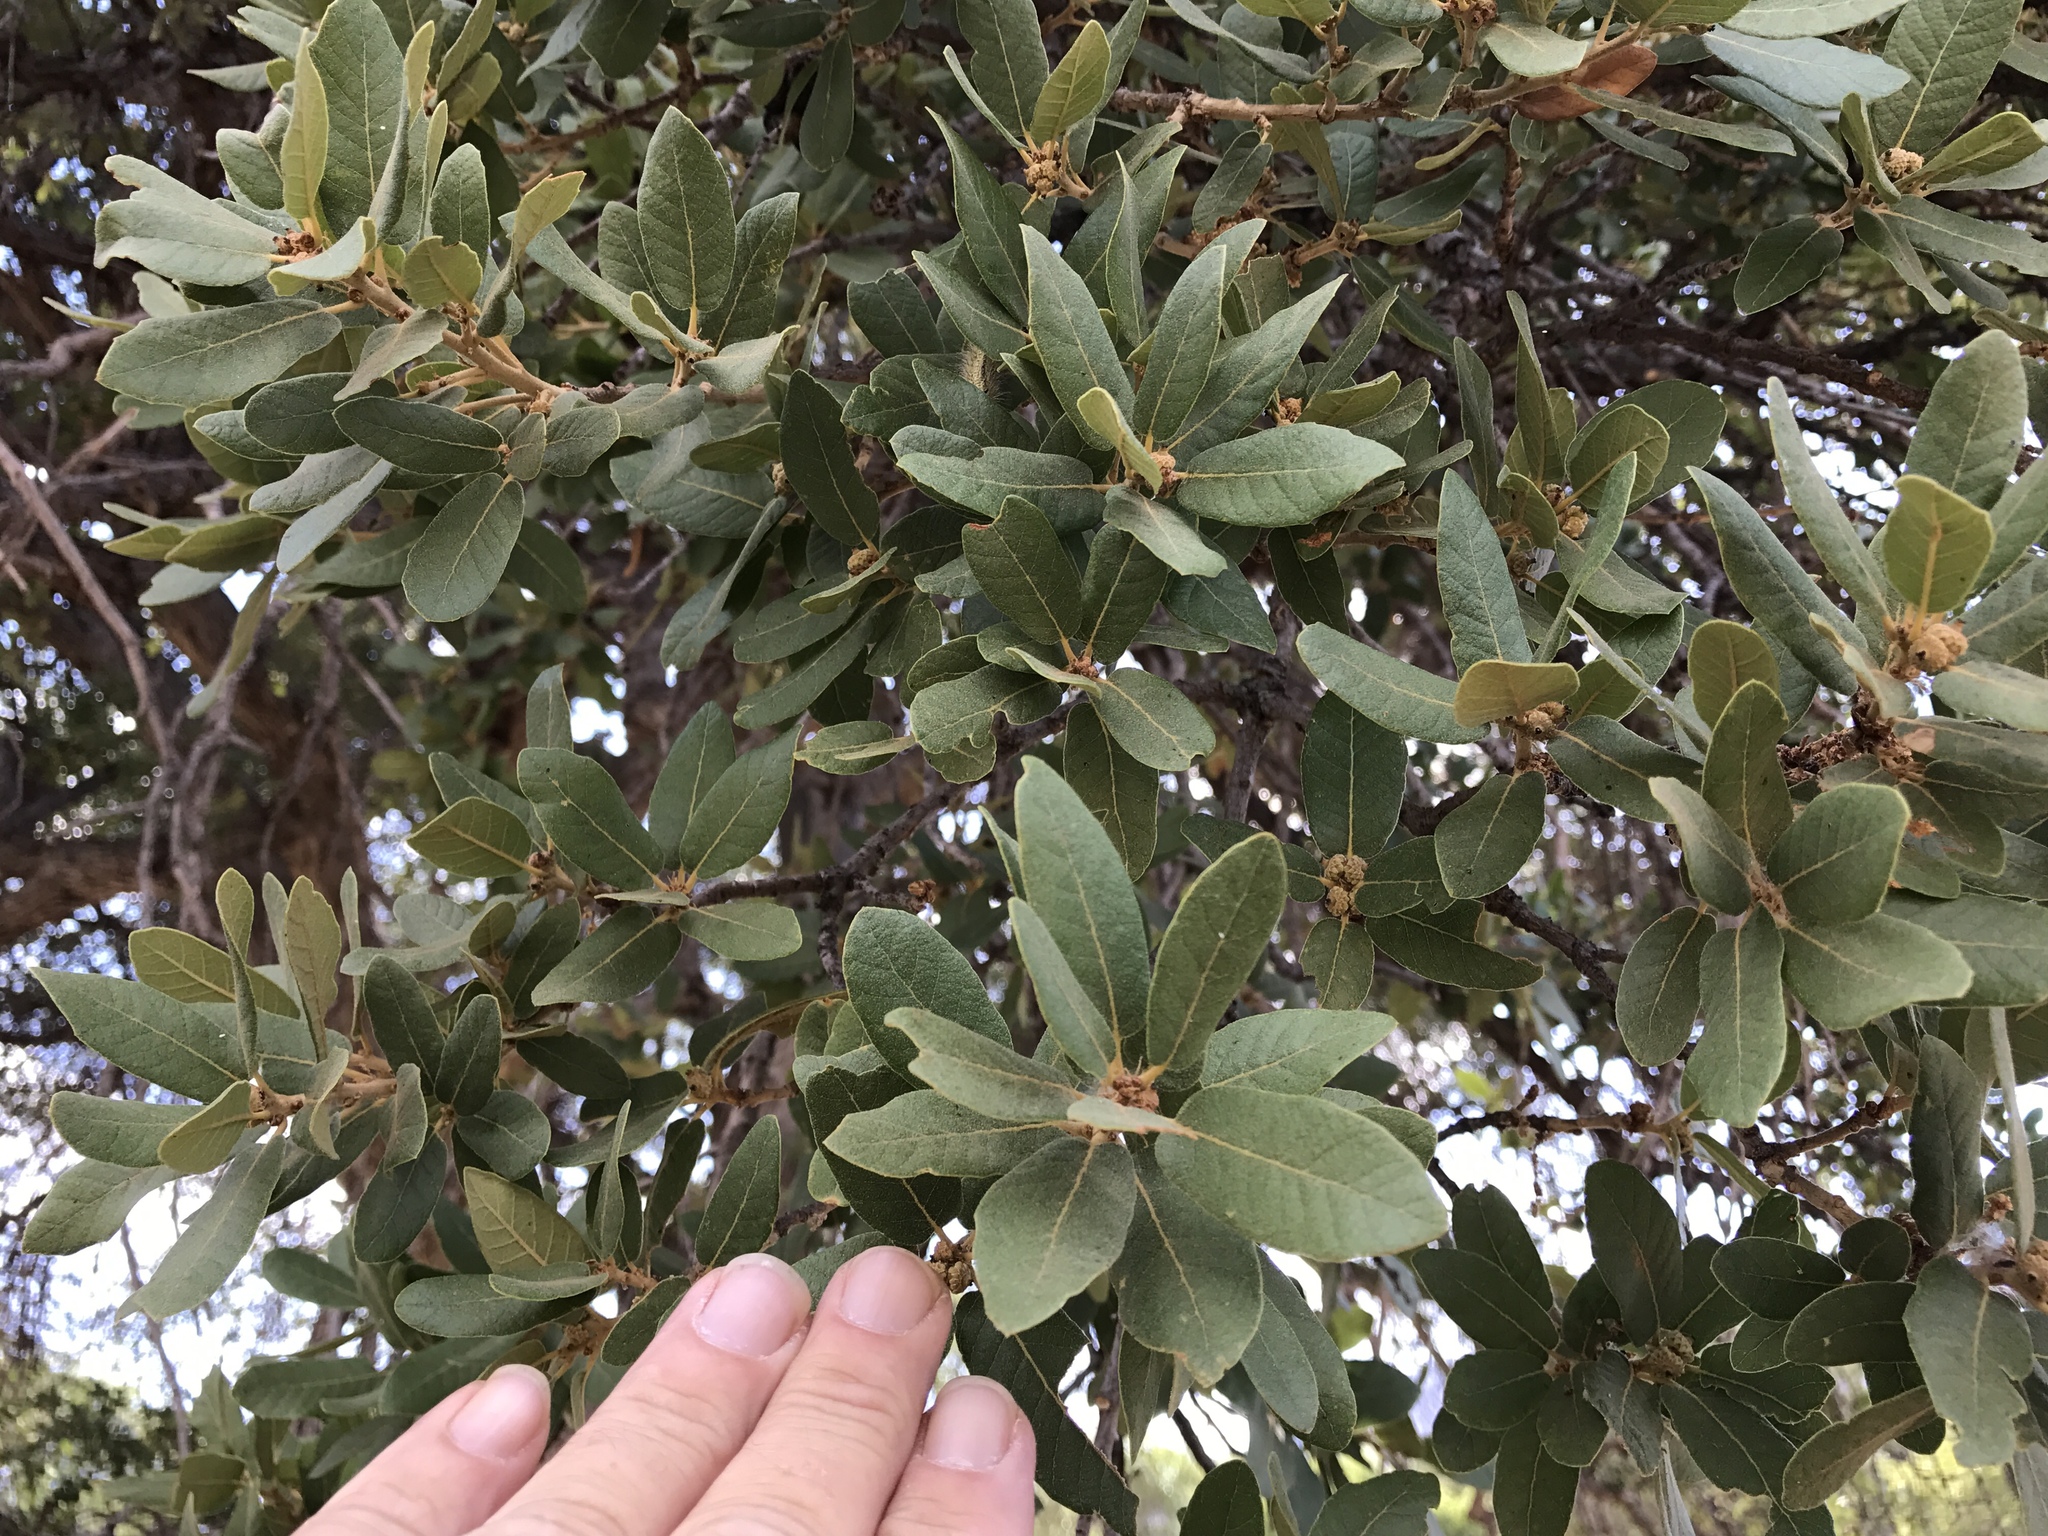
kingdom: Plantae
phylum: Tracheophyta
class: Magnoliopsida
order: Fagales
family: Fagaceae
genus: Quercus
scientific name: Quercus oblongifolia
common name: Mexican blue oak
